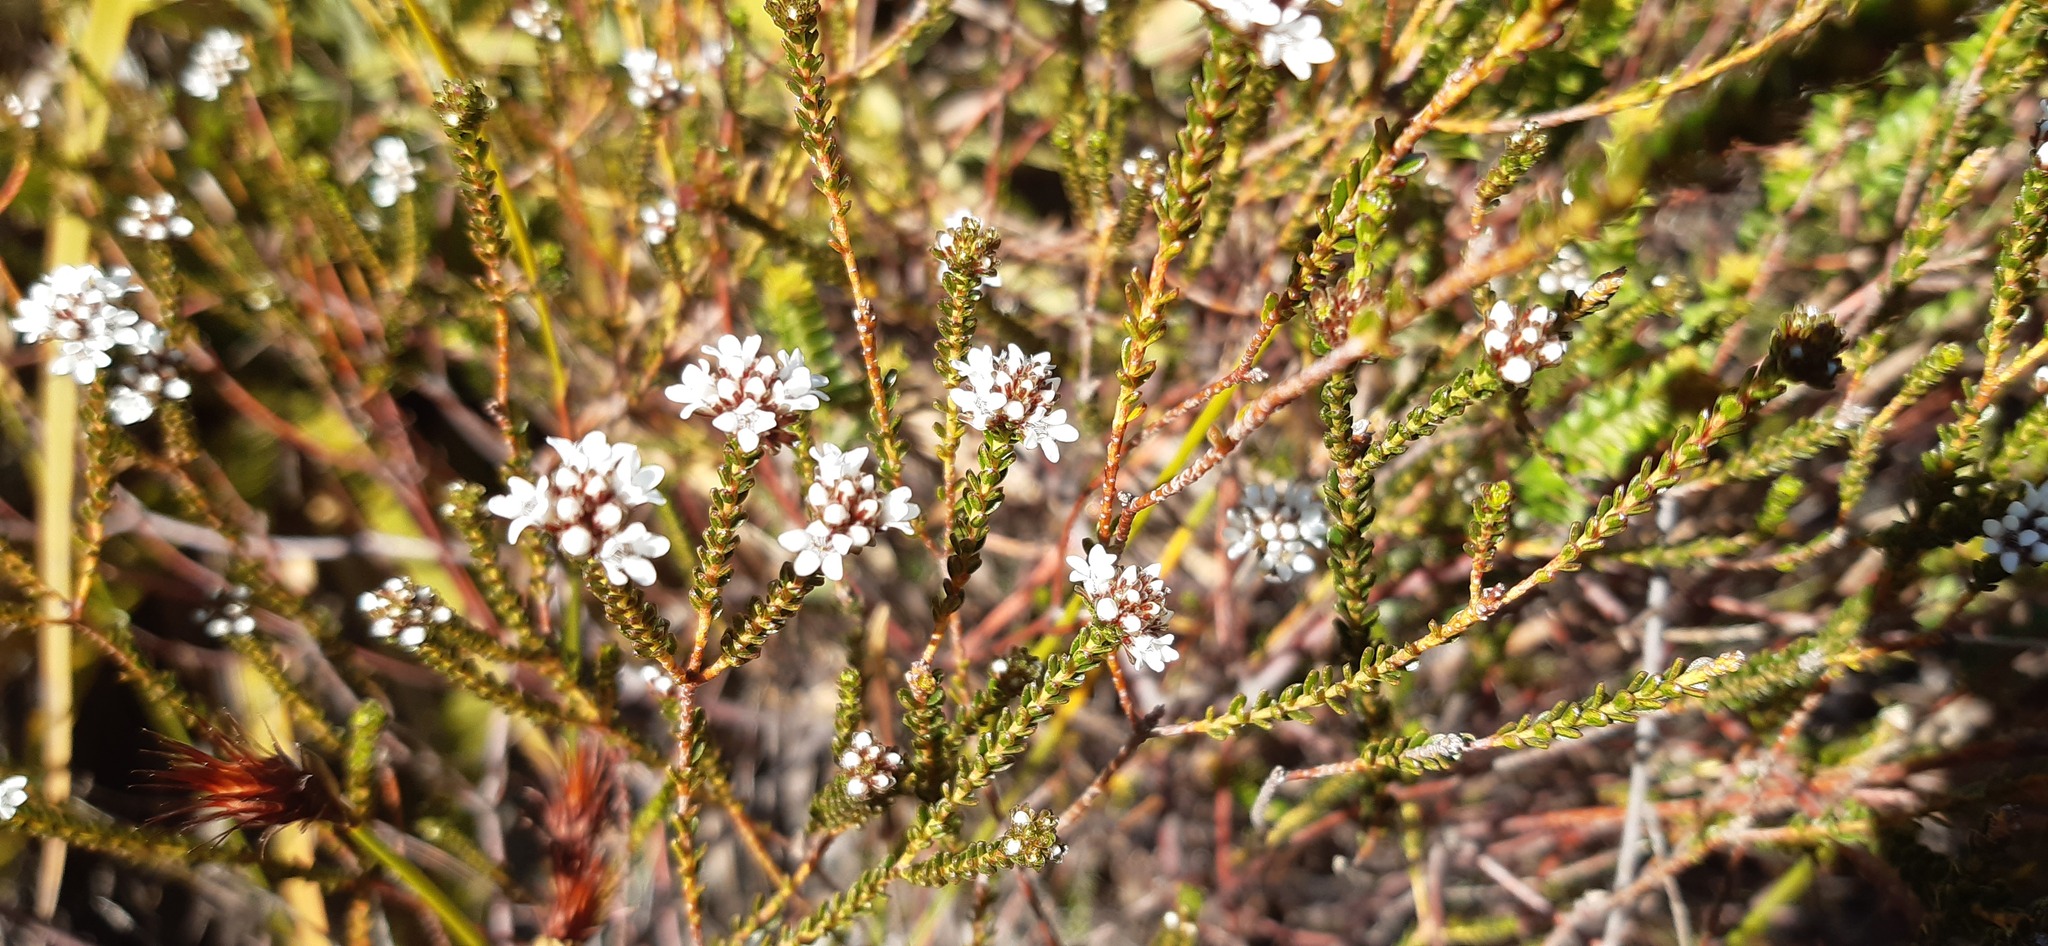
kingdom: Plantae
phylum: Tracheophyta
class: Magnoliopsida
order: Sapindales
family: Rutaceae
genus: Euchaetis
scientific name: Euchaetis glabra
